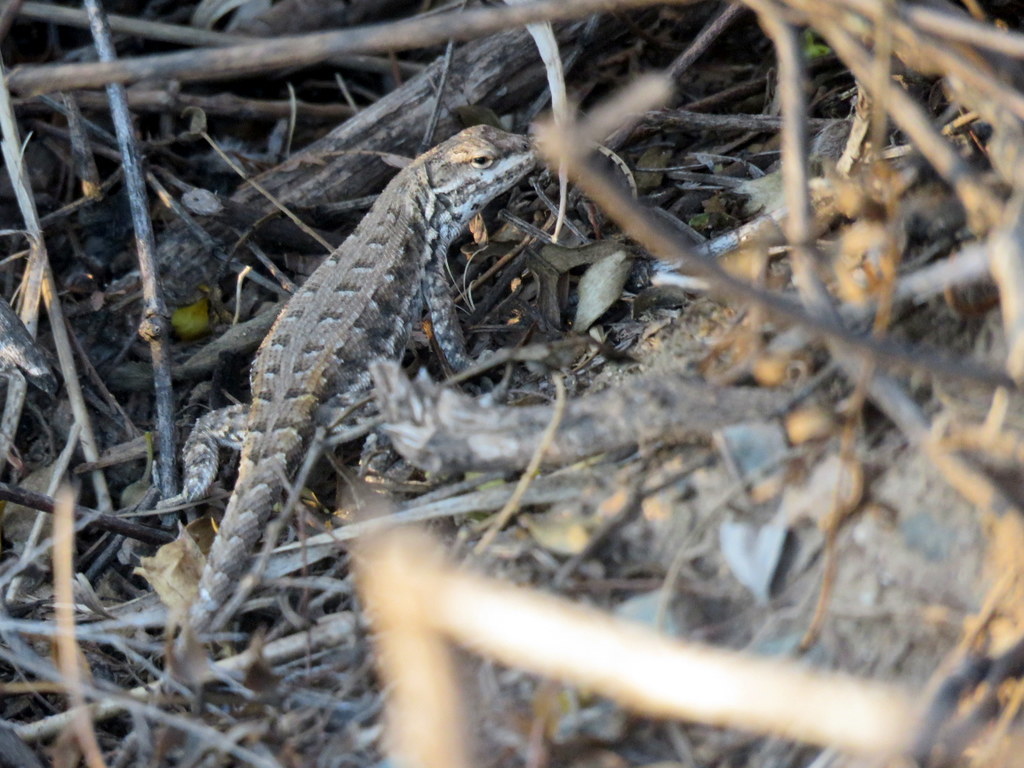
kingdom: Animalia
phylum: Chordata
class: Squamata
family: Liolaemidae
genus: Liolaemus
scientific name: Liolaemus chacoensis
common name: Chaco tree iguana
